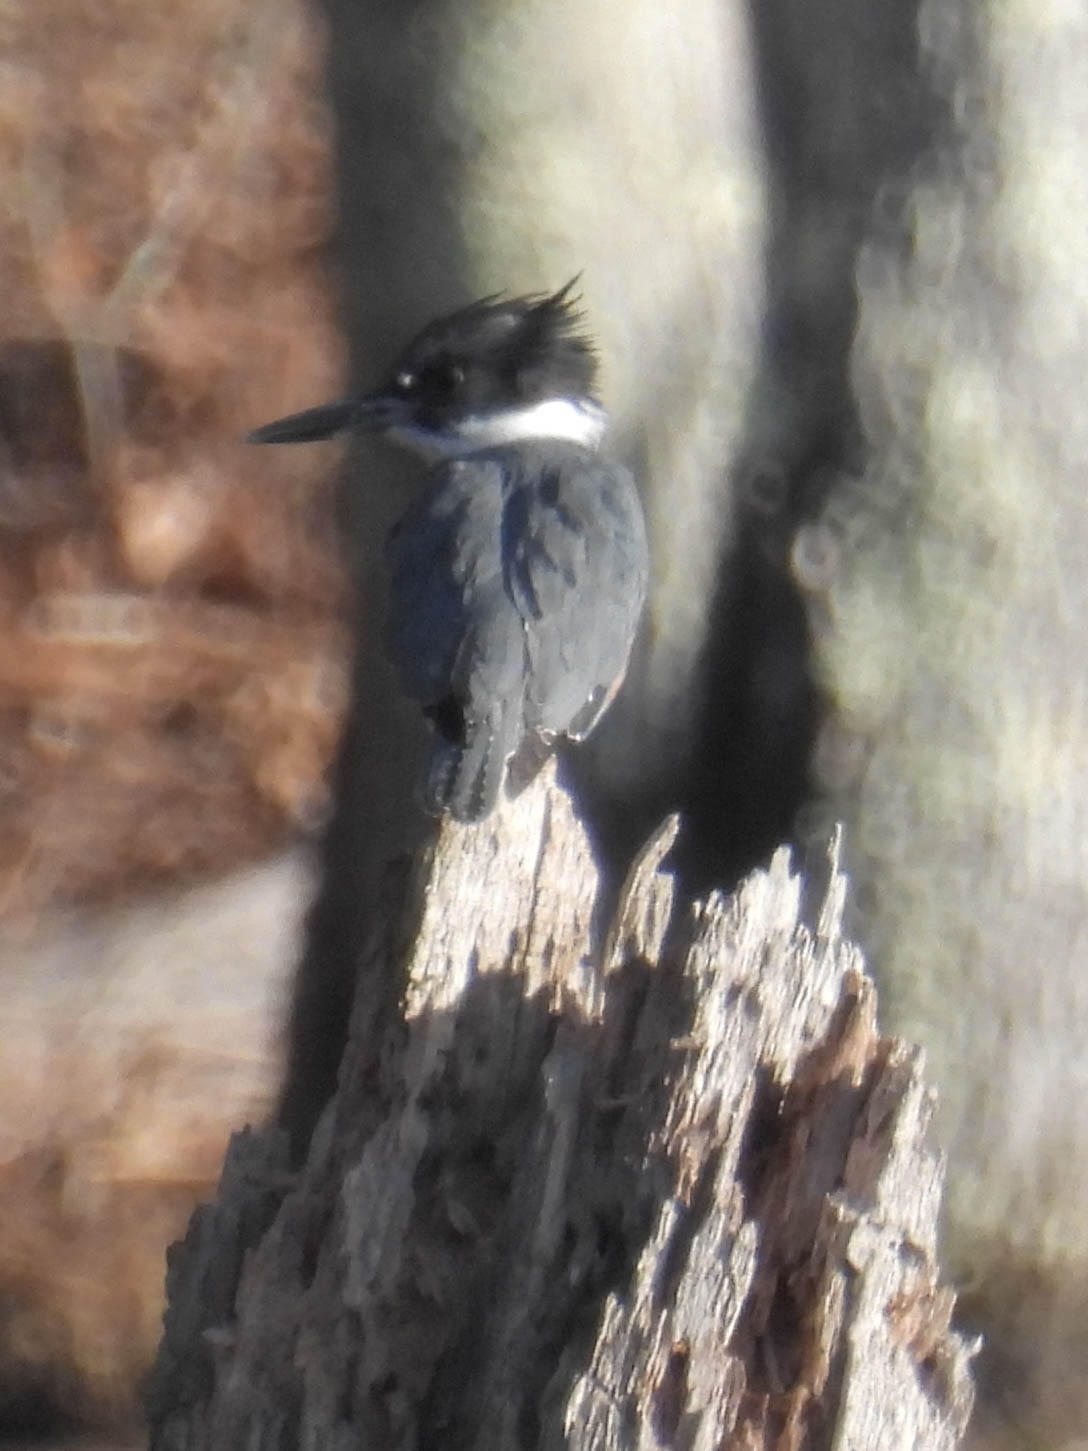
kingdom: Animalia
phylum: Chordata
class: Aves
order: Coraciiformes
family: Alcedinidae
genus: Megaceryle
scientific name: Megaceryle alcyon
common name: Belted kingfisher
